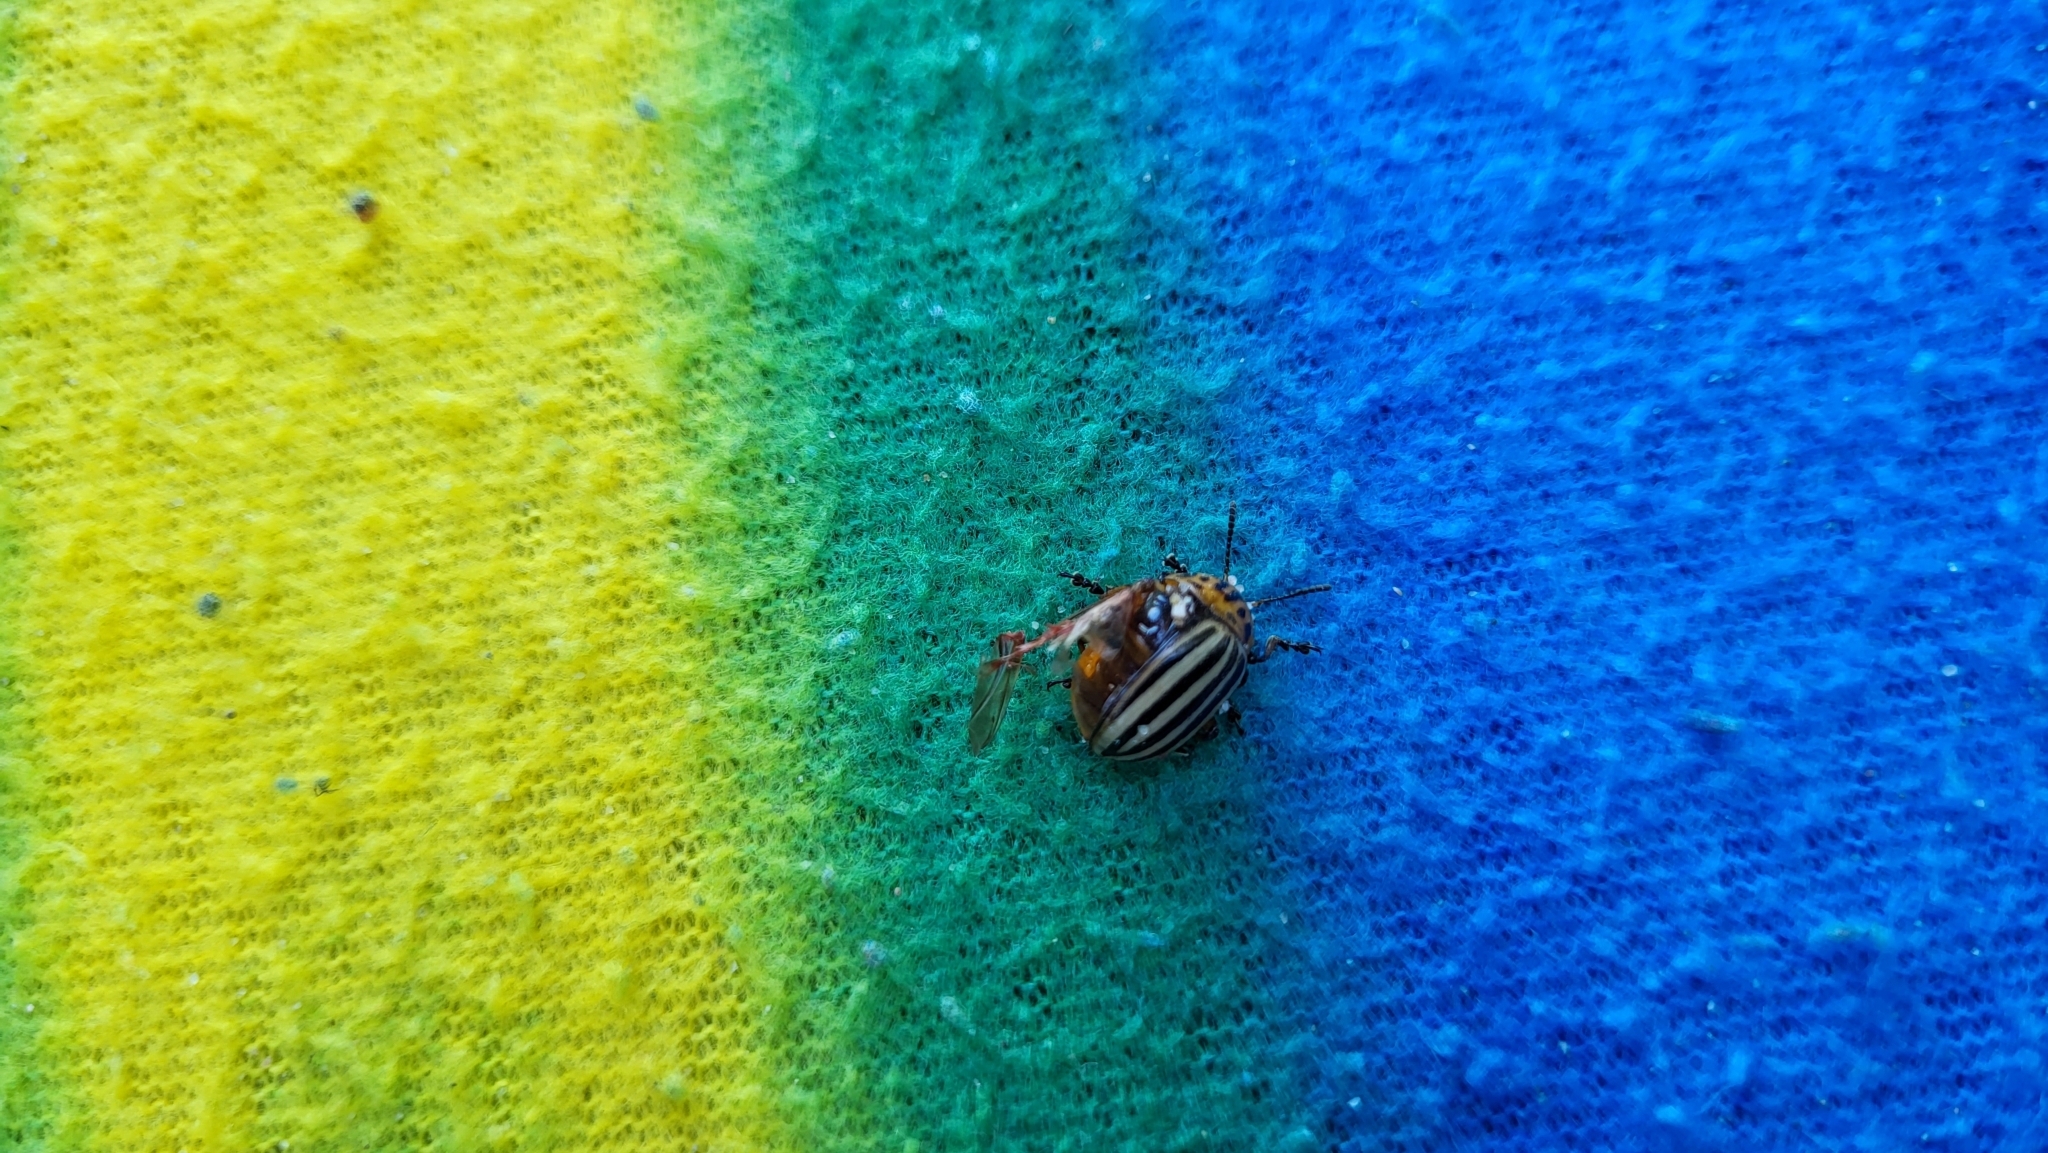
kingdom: Animalia
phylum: Arthropoda
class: Insecta
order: Coleoptera
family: Chrysomelidae
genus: Leptinotarsa
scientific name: Leptinotarsa decemlineata
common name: Colorado potato beetle
